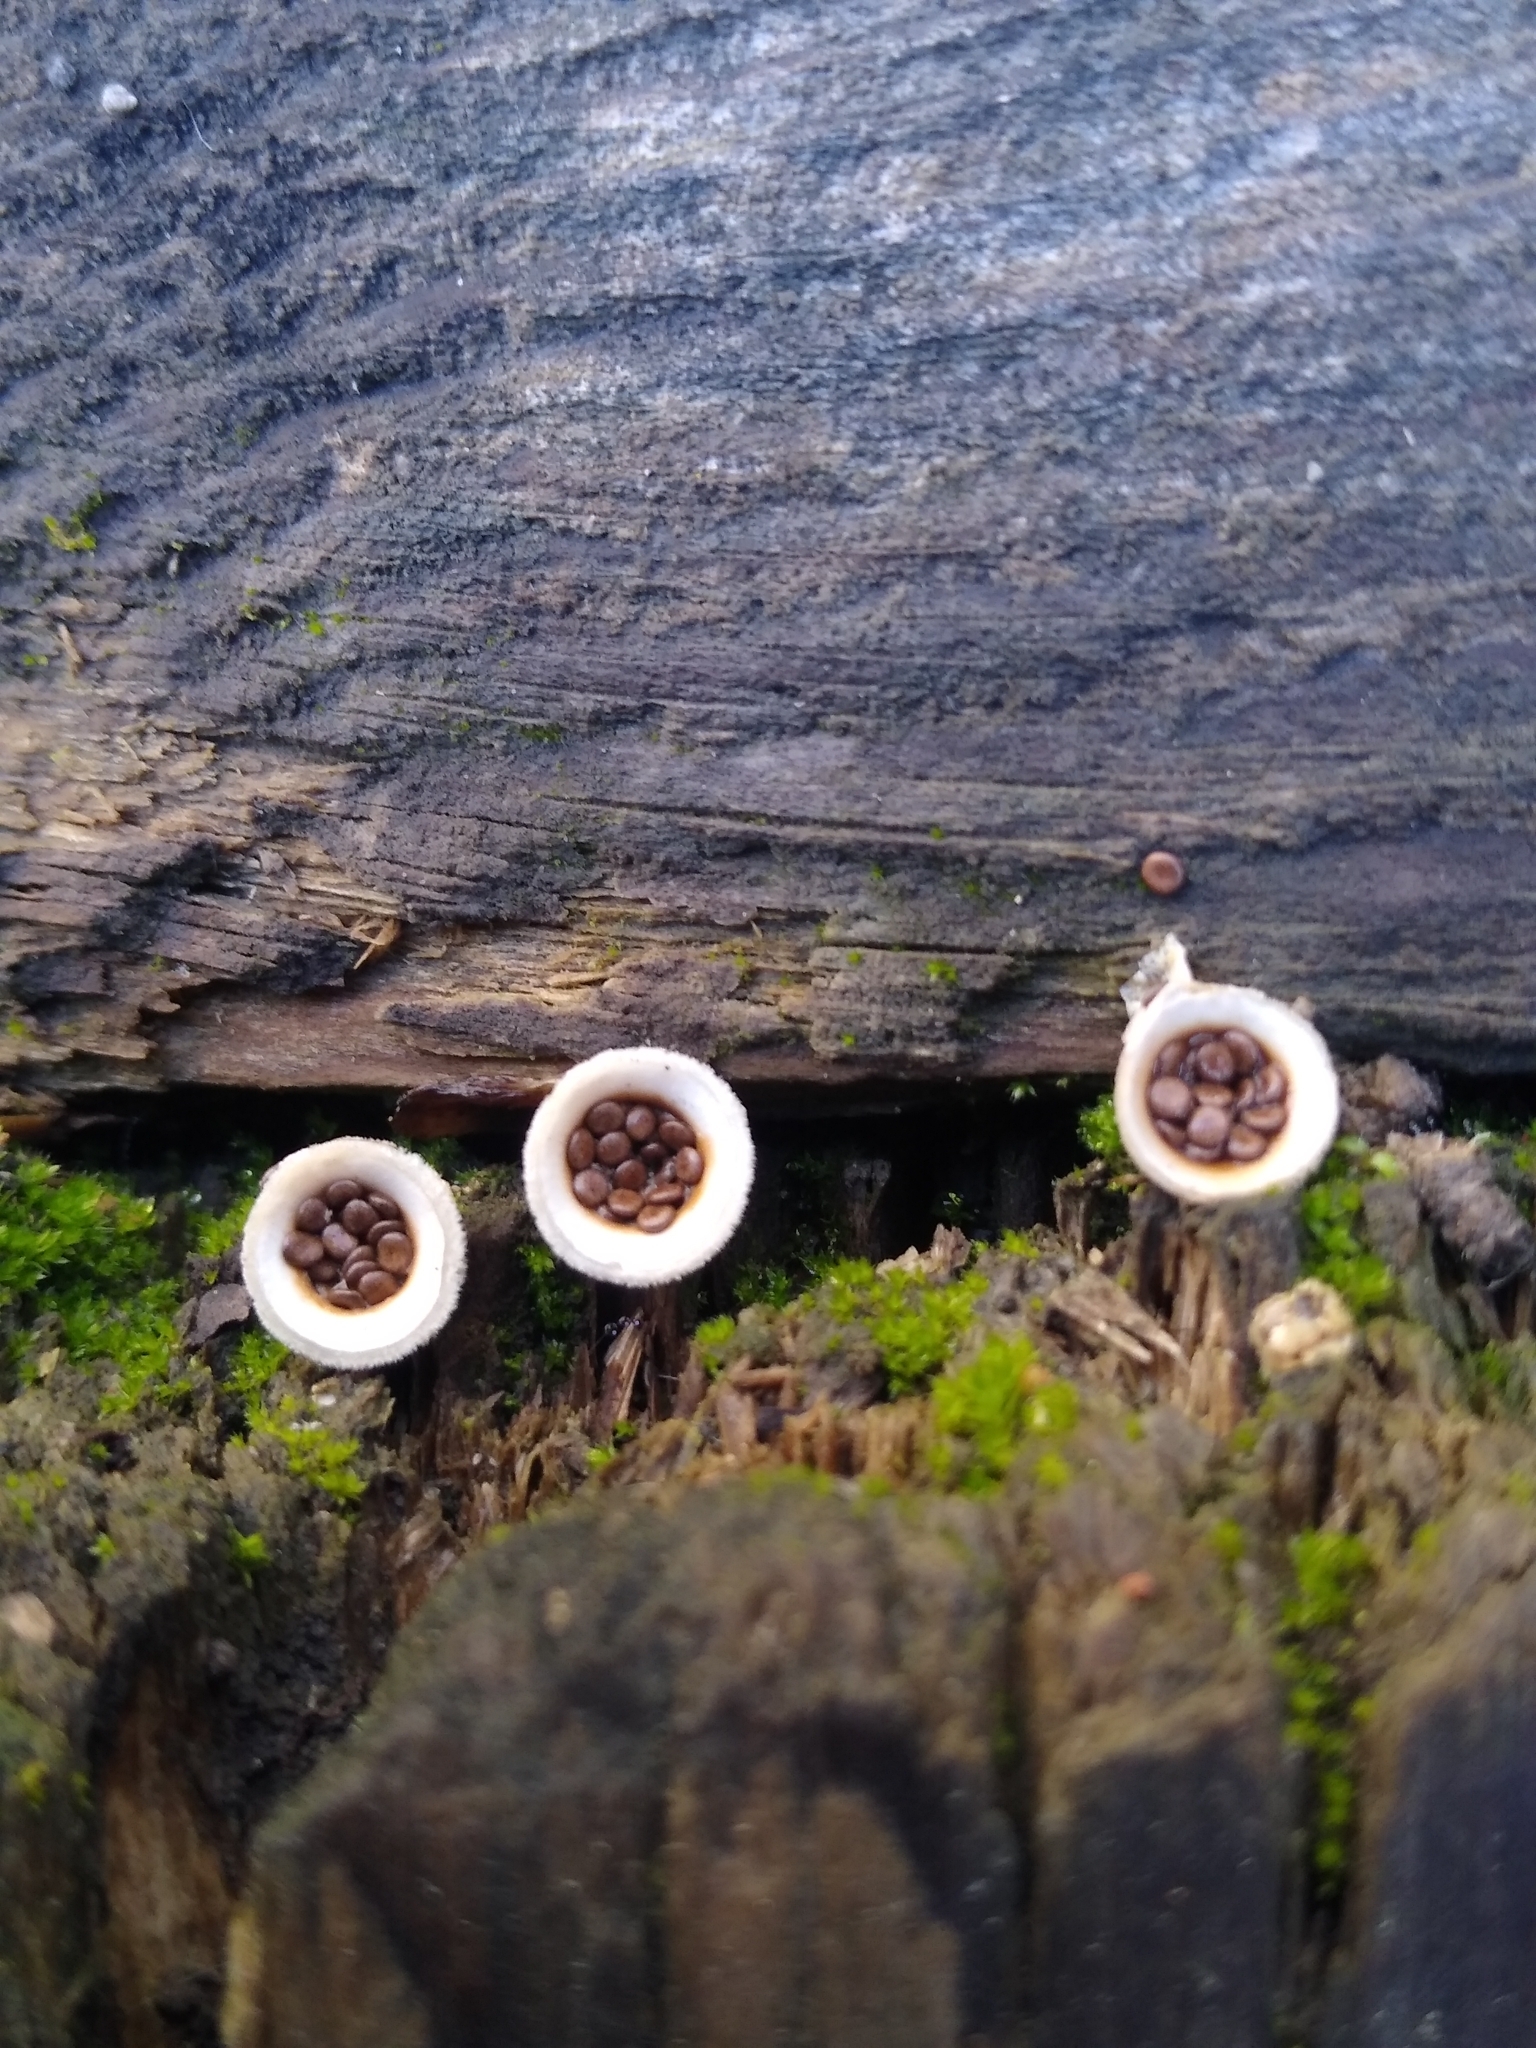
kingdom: Fungi
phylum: Basidiomycota
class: Agaricomycetes
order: Agaricales
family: Agaricaceae
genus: Nidula
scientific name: Nidula niveotomentosa
